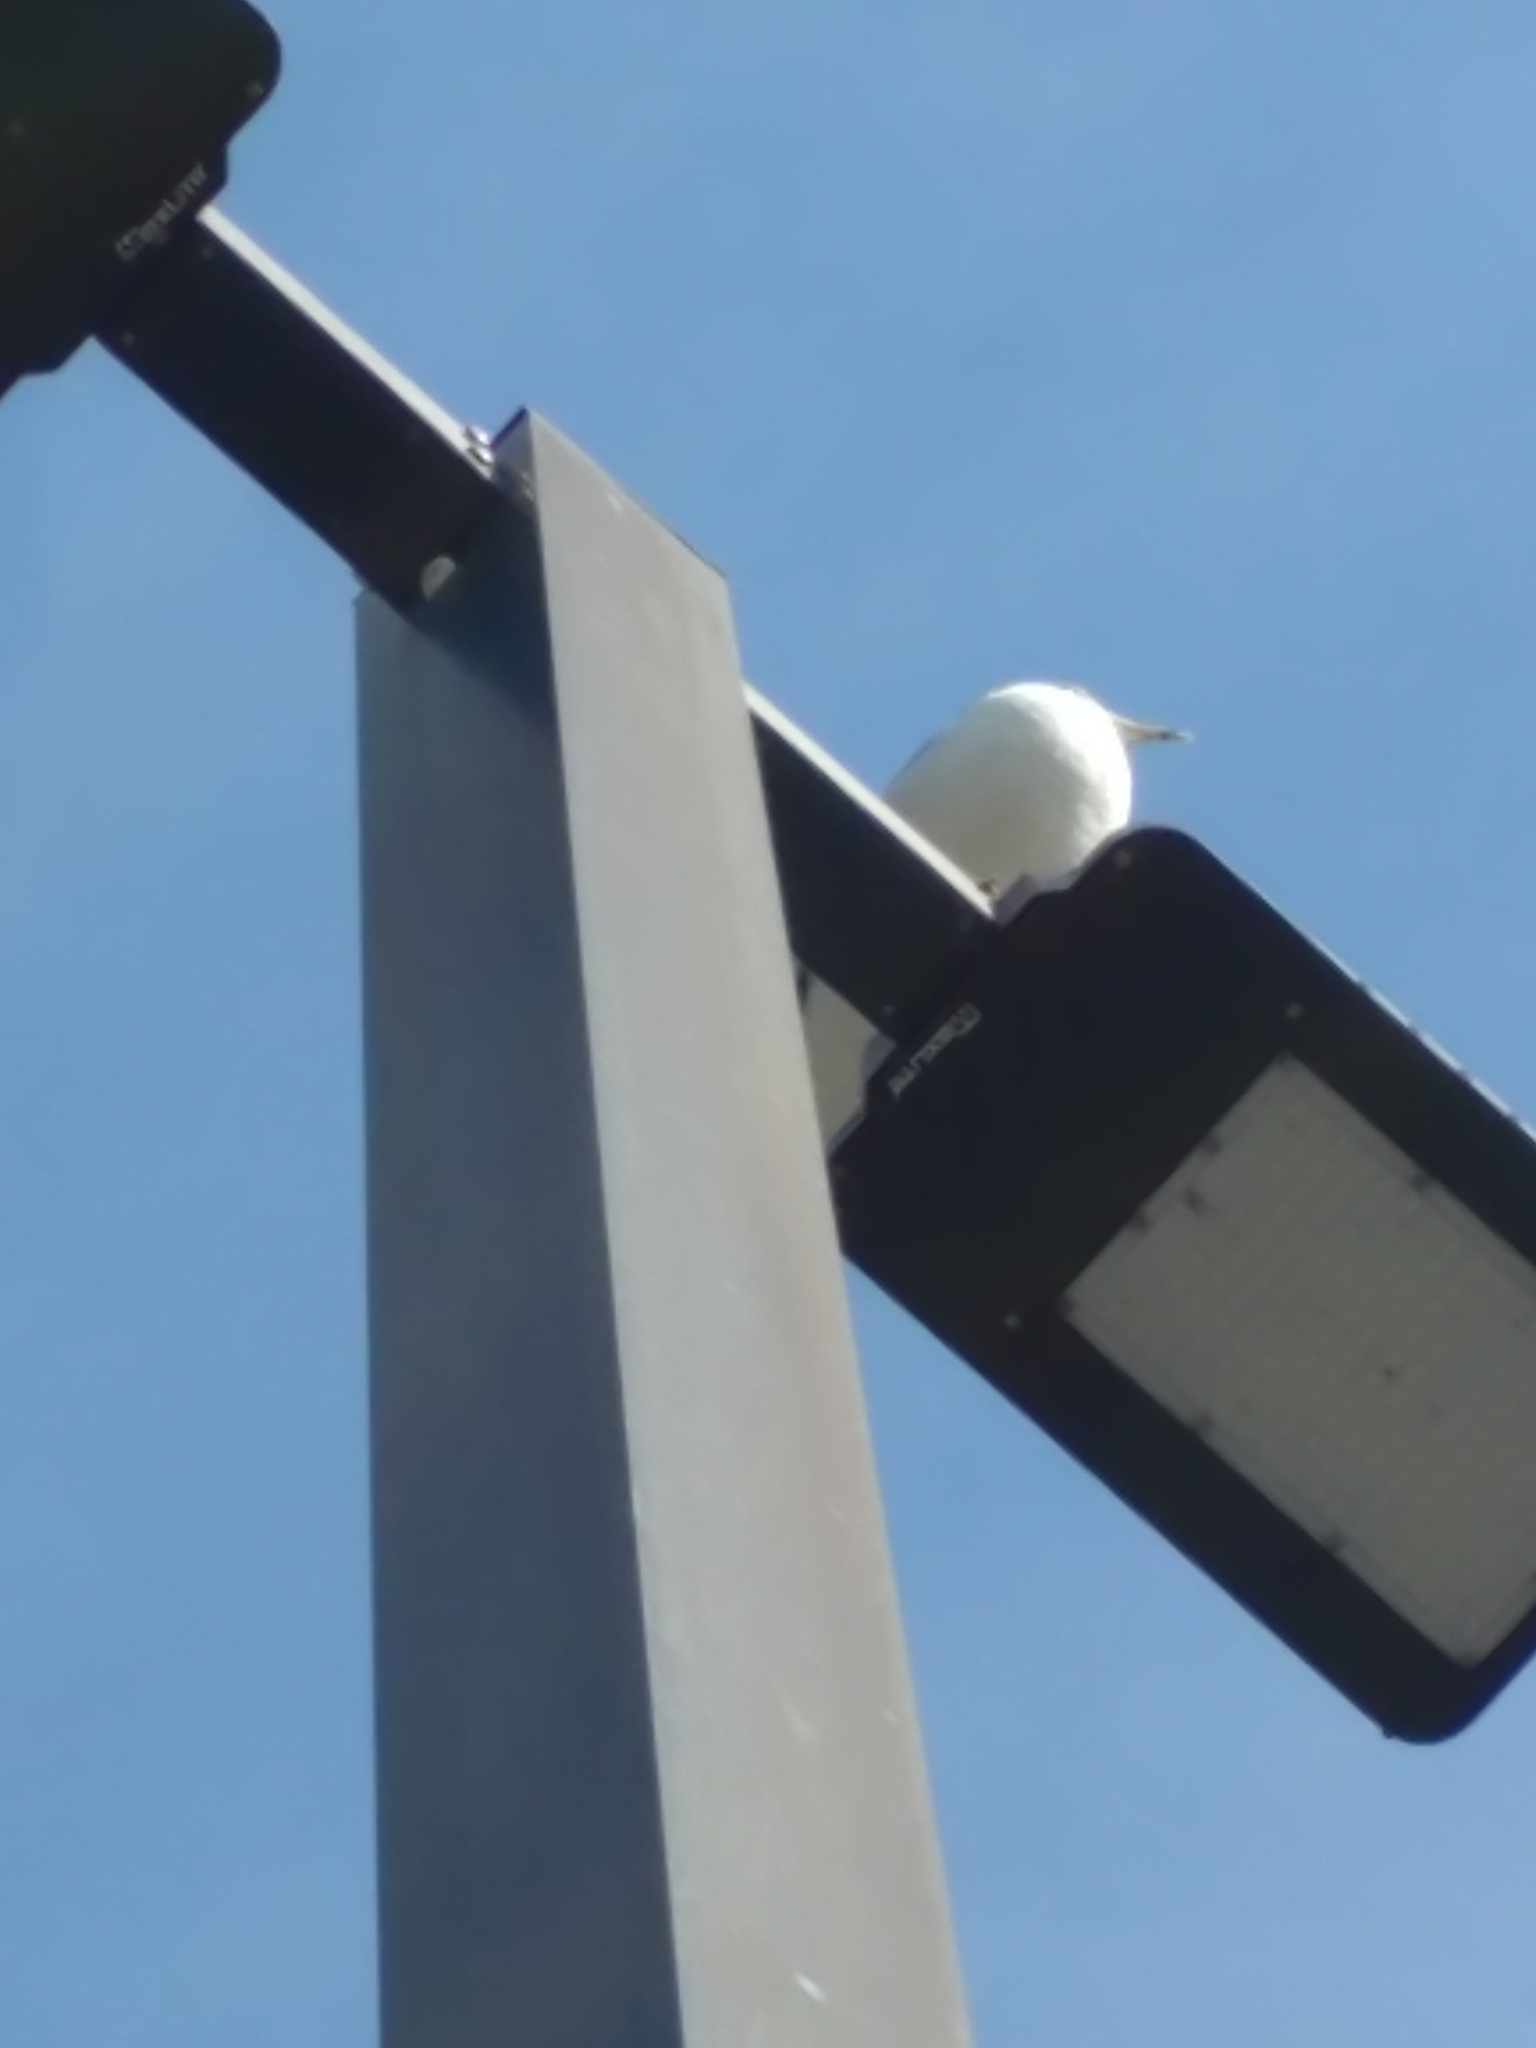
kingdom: Animalia
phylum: Chordata
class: Aves
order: Charadriiformes
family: Laridae
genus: Larus
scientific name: Larus delawarensis
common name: Ring-billed gull
